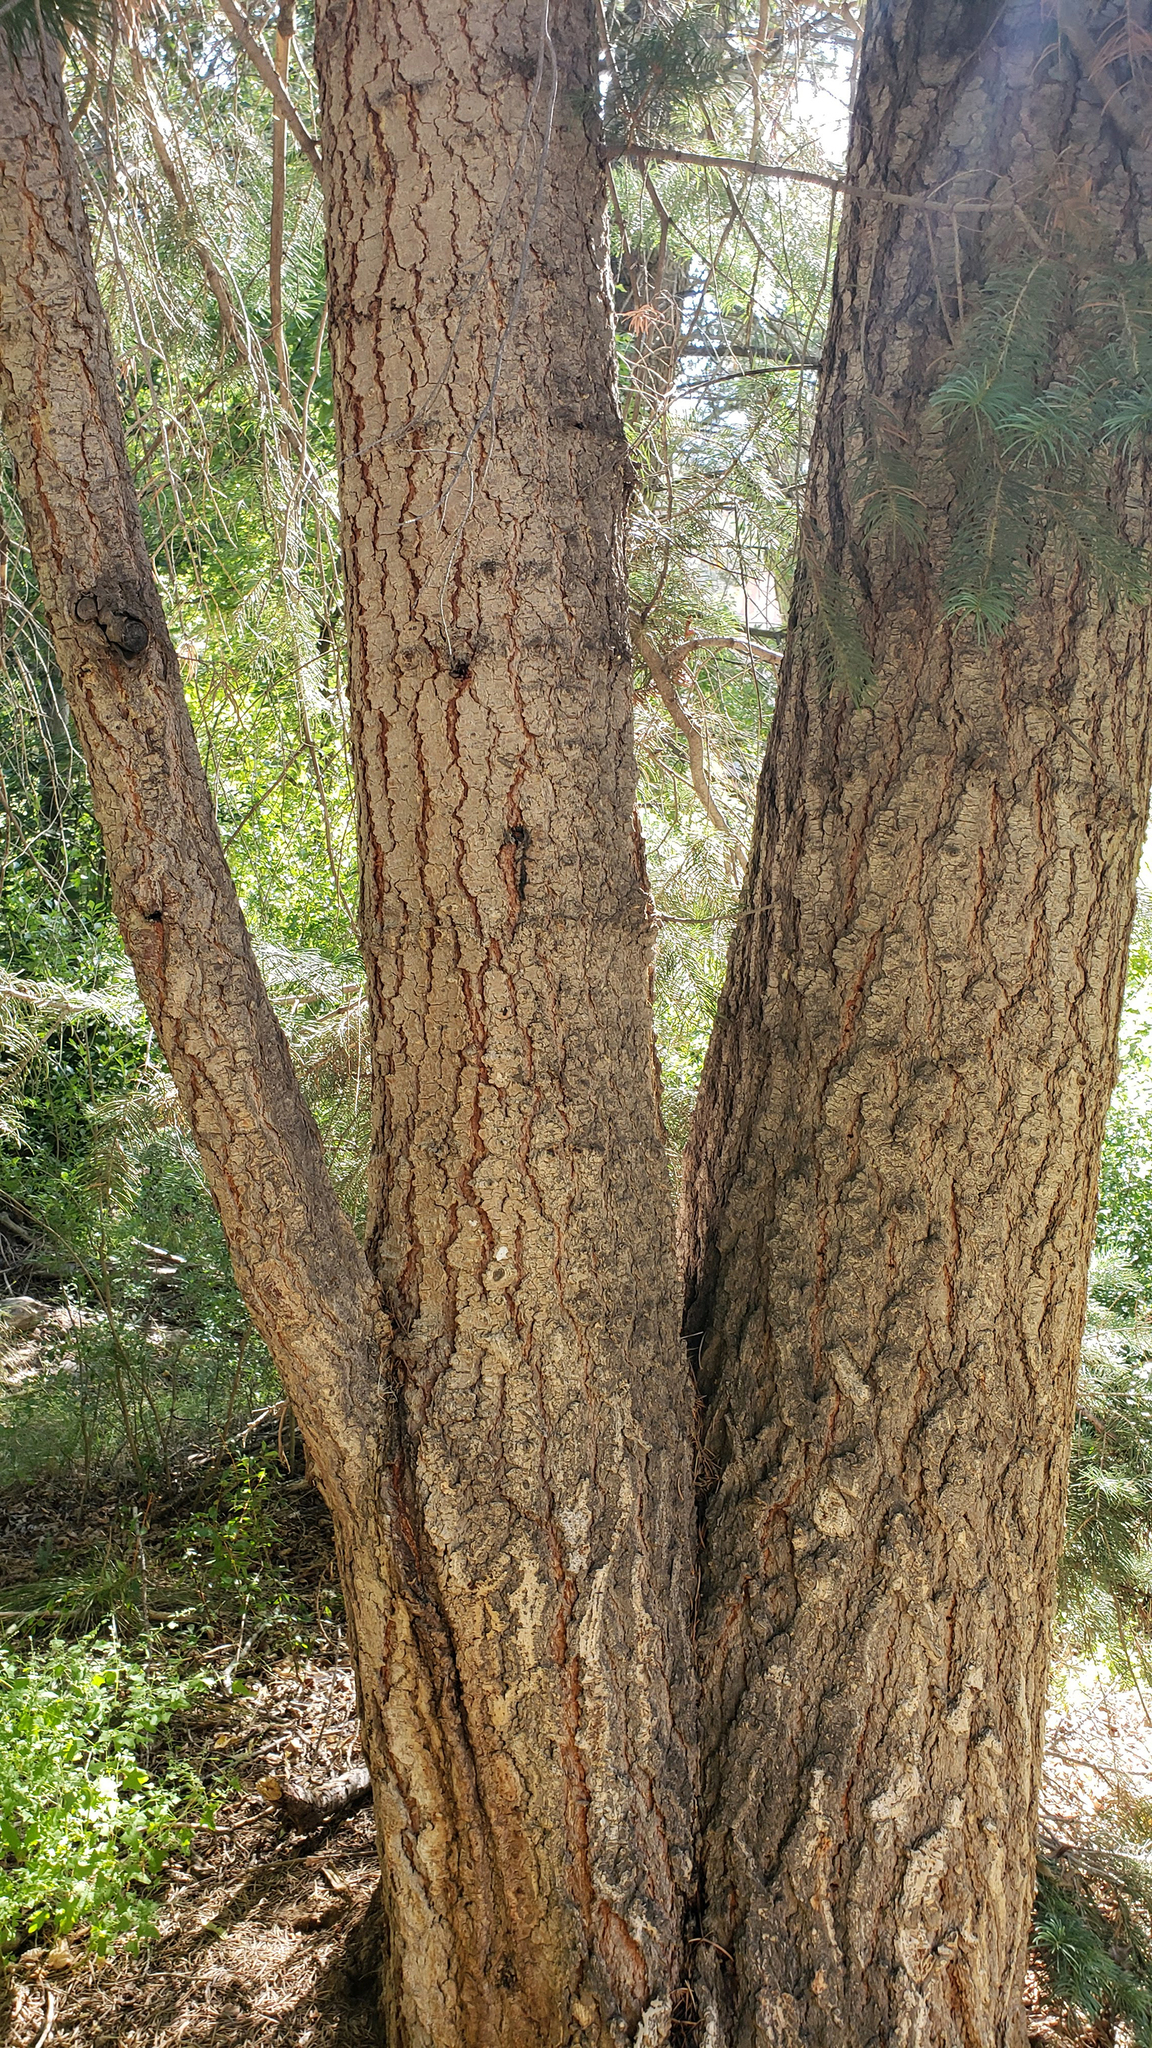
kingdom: Plantae
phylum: Tracheophyta
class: Pinopsida
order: Pinales
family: Pinaceae
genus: Abies
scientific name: Abies concolor
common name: Colorado fir
